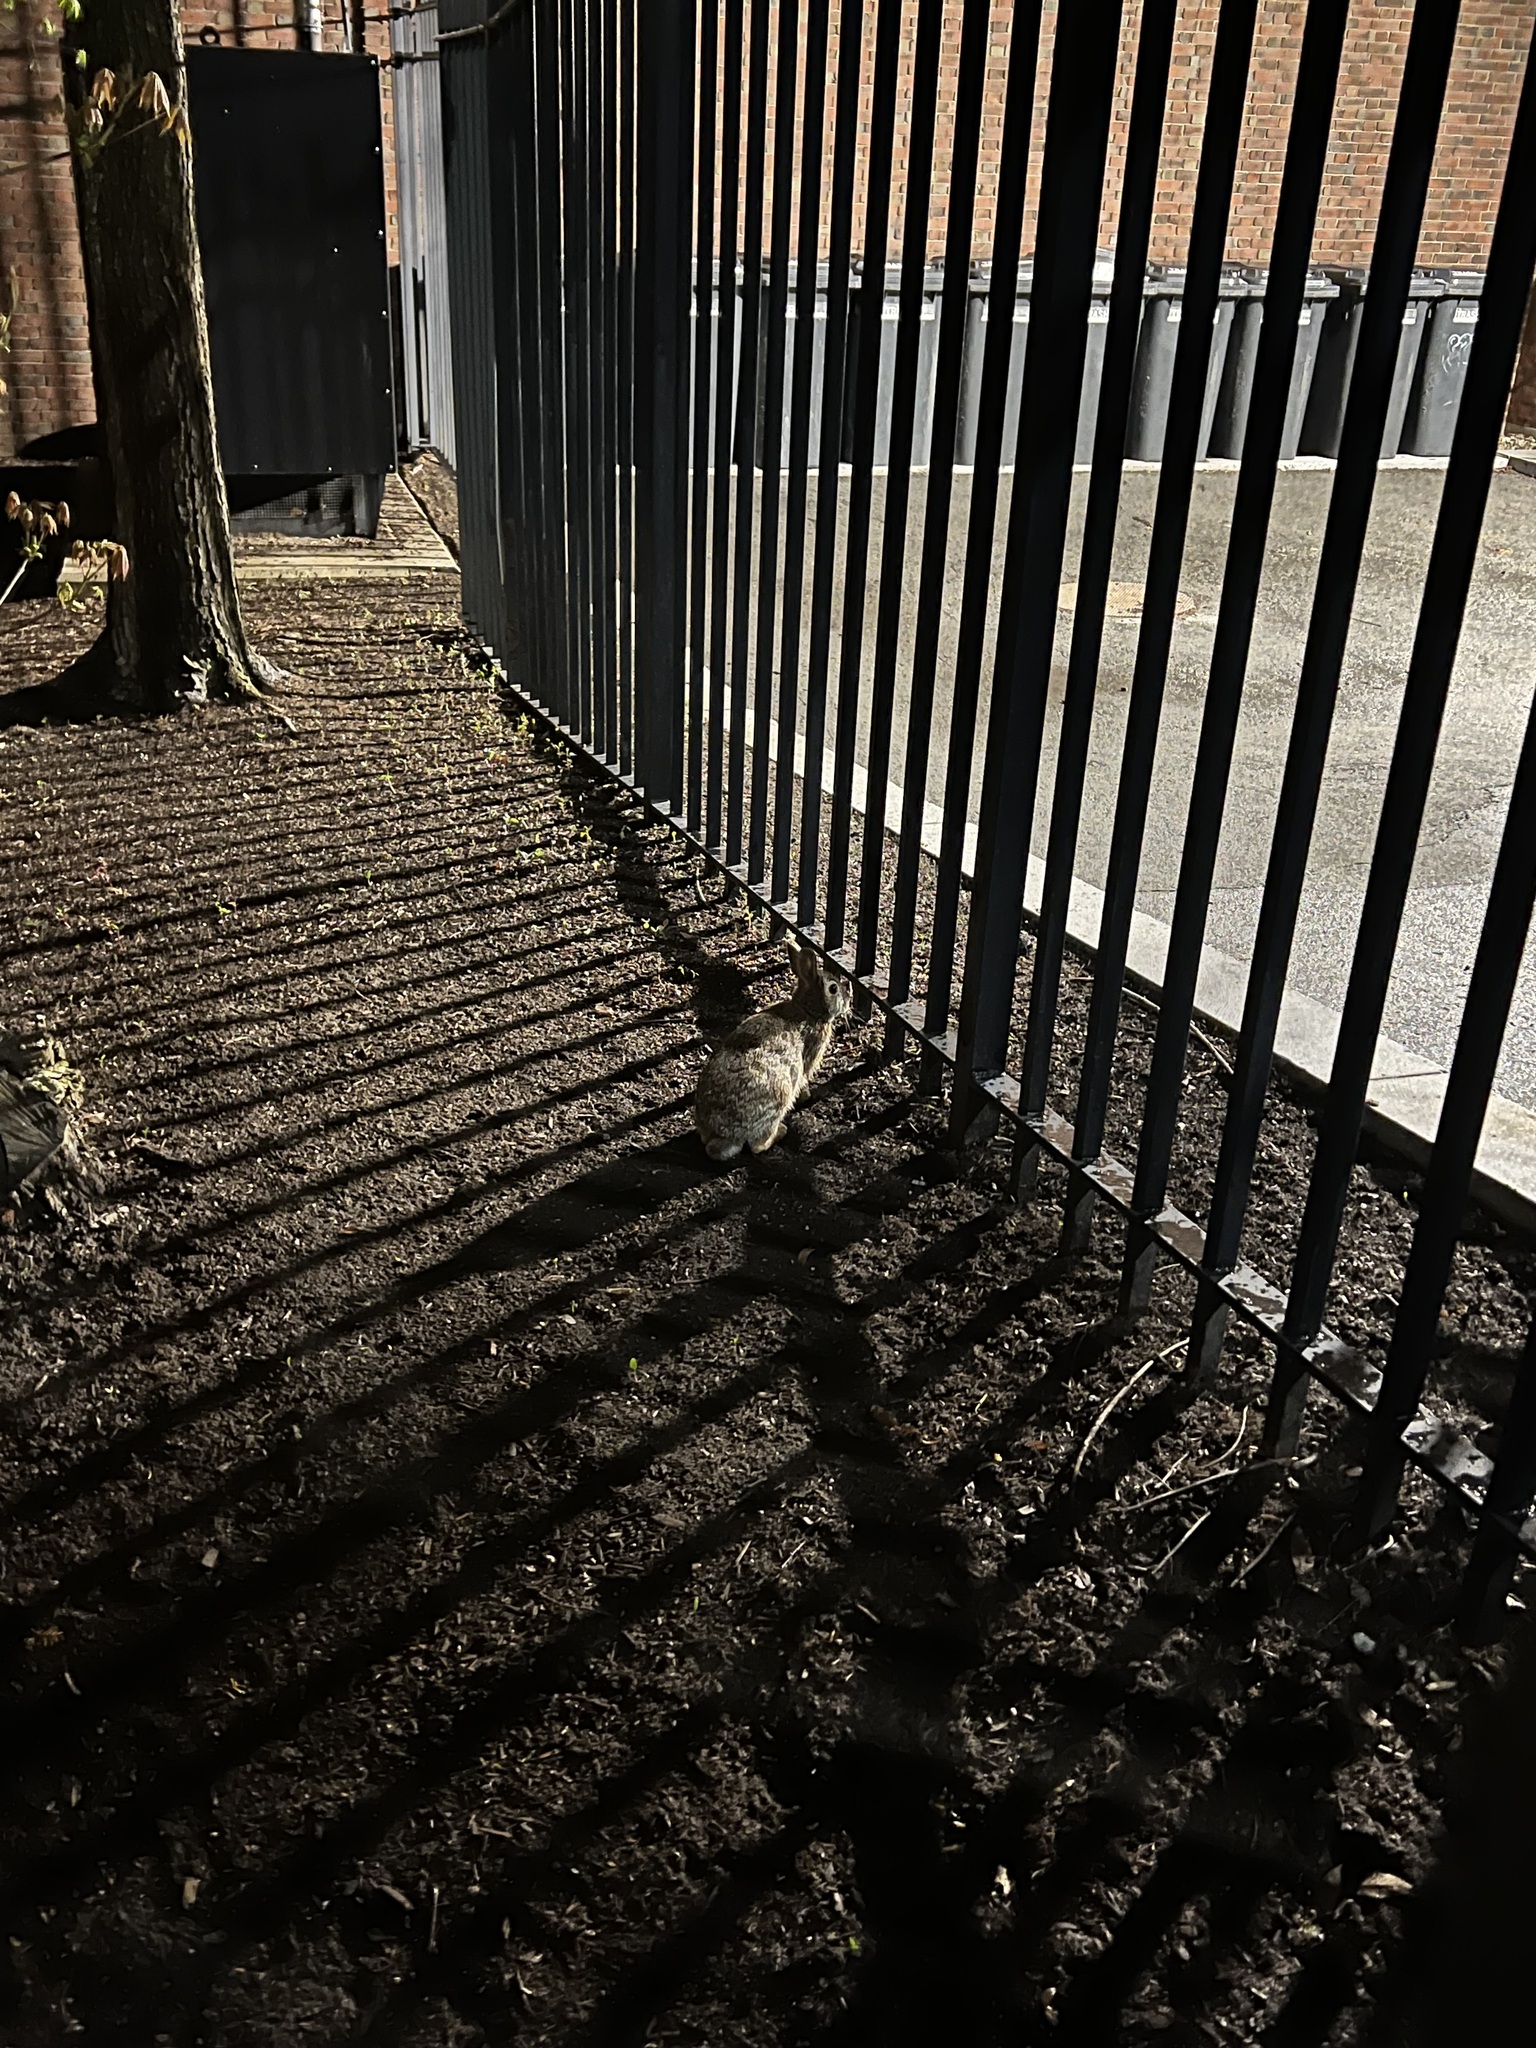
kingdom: Animalia
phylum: Chordata
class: Mammalia
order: Lagomorpha
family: Leporidae
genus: Sylvilagus
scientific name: Sylvilagus floridanus
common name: Eastern cottontail
